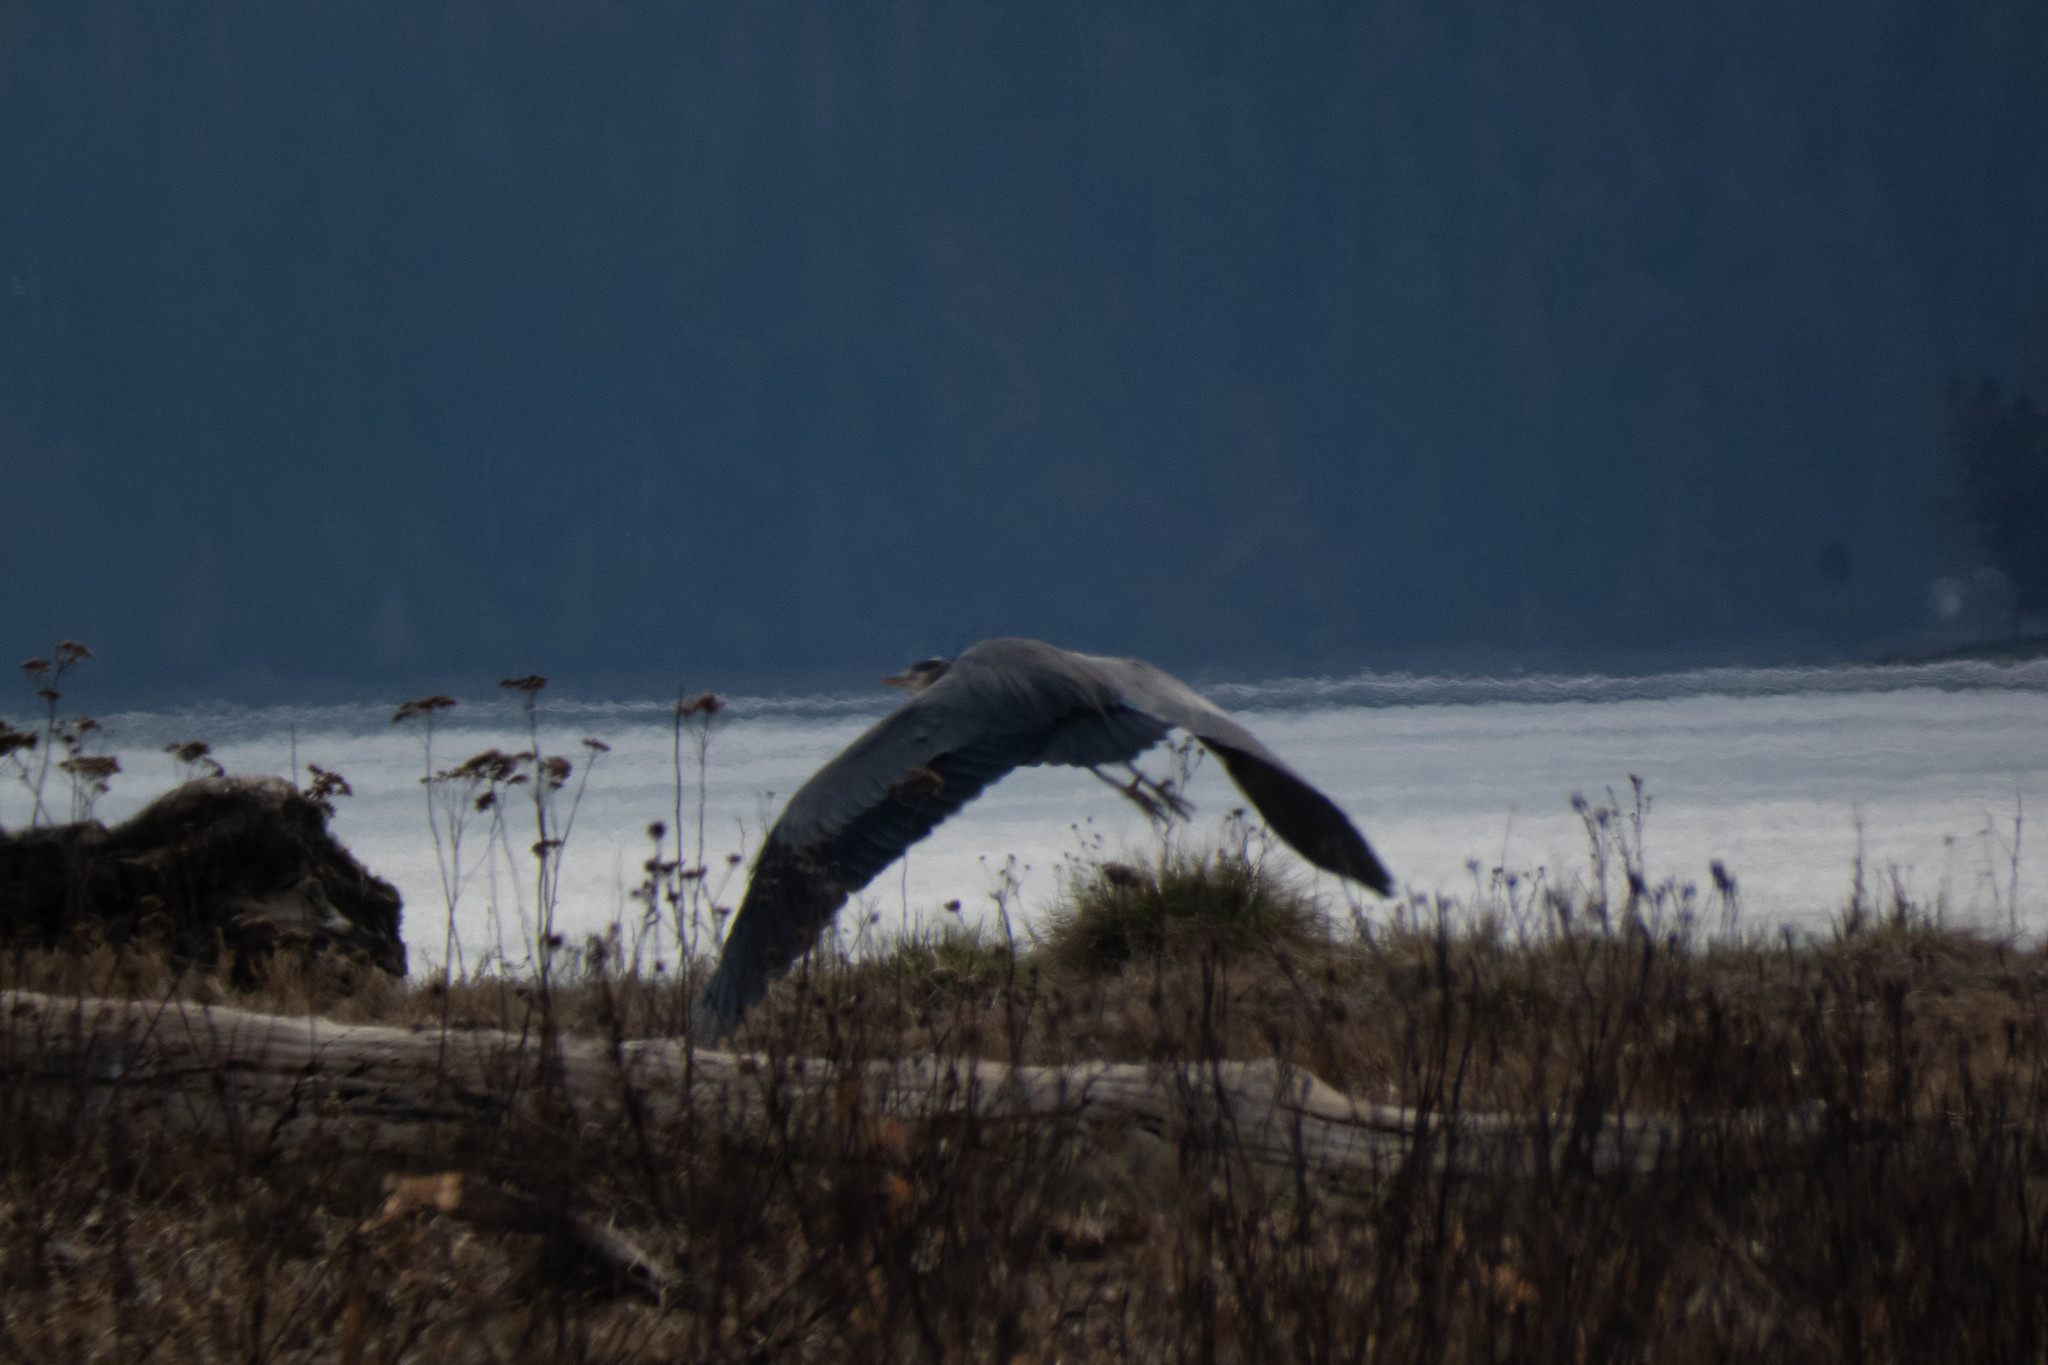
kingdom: Animalia
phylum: Chordata
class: Aves
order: Pelecaniformes
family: Ardeidae
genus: Ardea
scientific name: Ardea herodias
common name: Great blue heron
